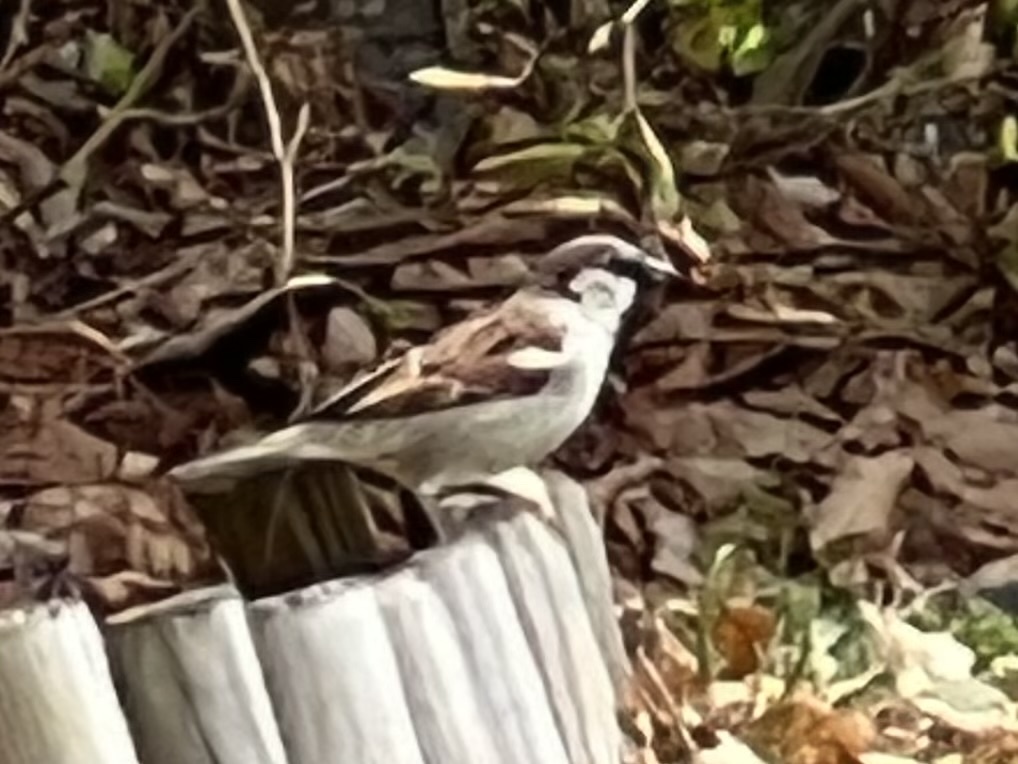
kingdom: Animalia
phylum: Chordata
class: Aves
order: Passeriformes
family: Passeridae
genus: Passer
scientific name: Passer domesticus
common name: House sparrow
